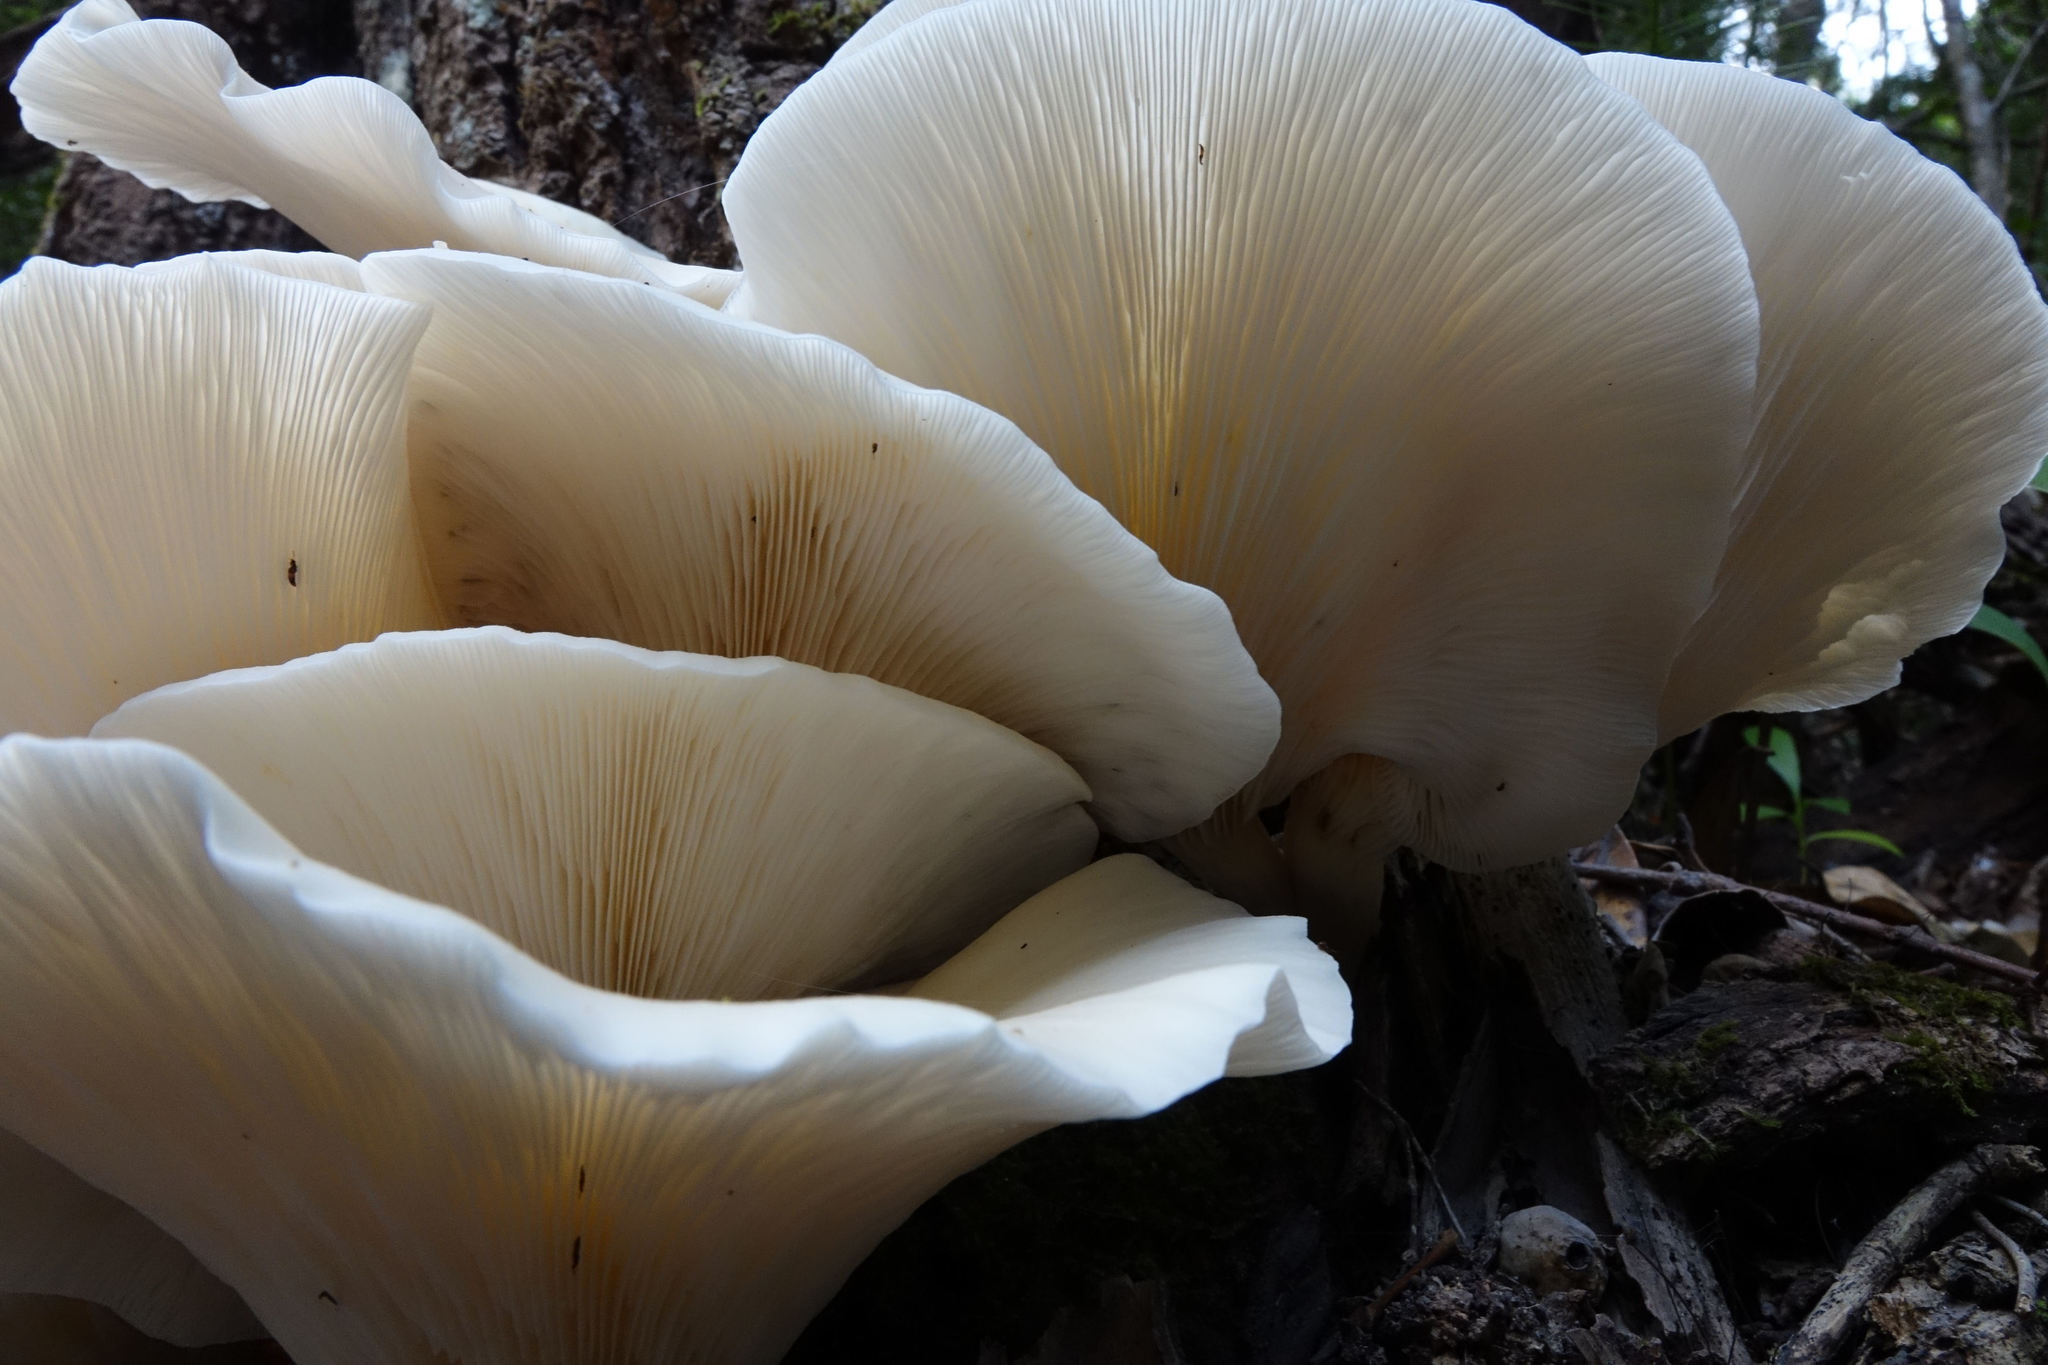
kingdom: Fungi
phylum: Basidiomycota
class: Agaricomycetes
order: Agaricales
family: Omphalotaceae
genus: Omphalotus
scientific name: Omphalotus nidiformis
